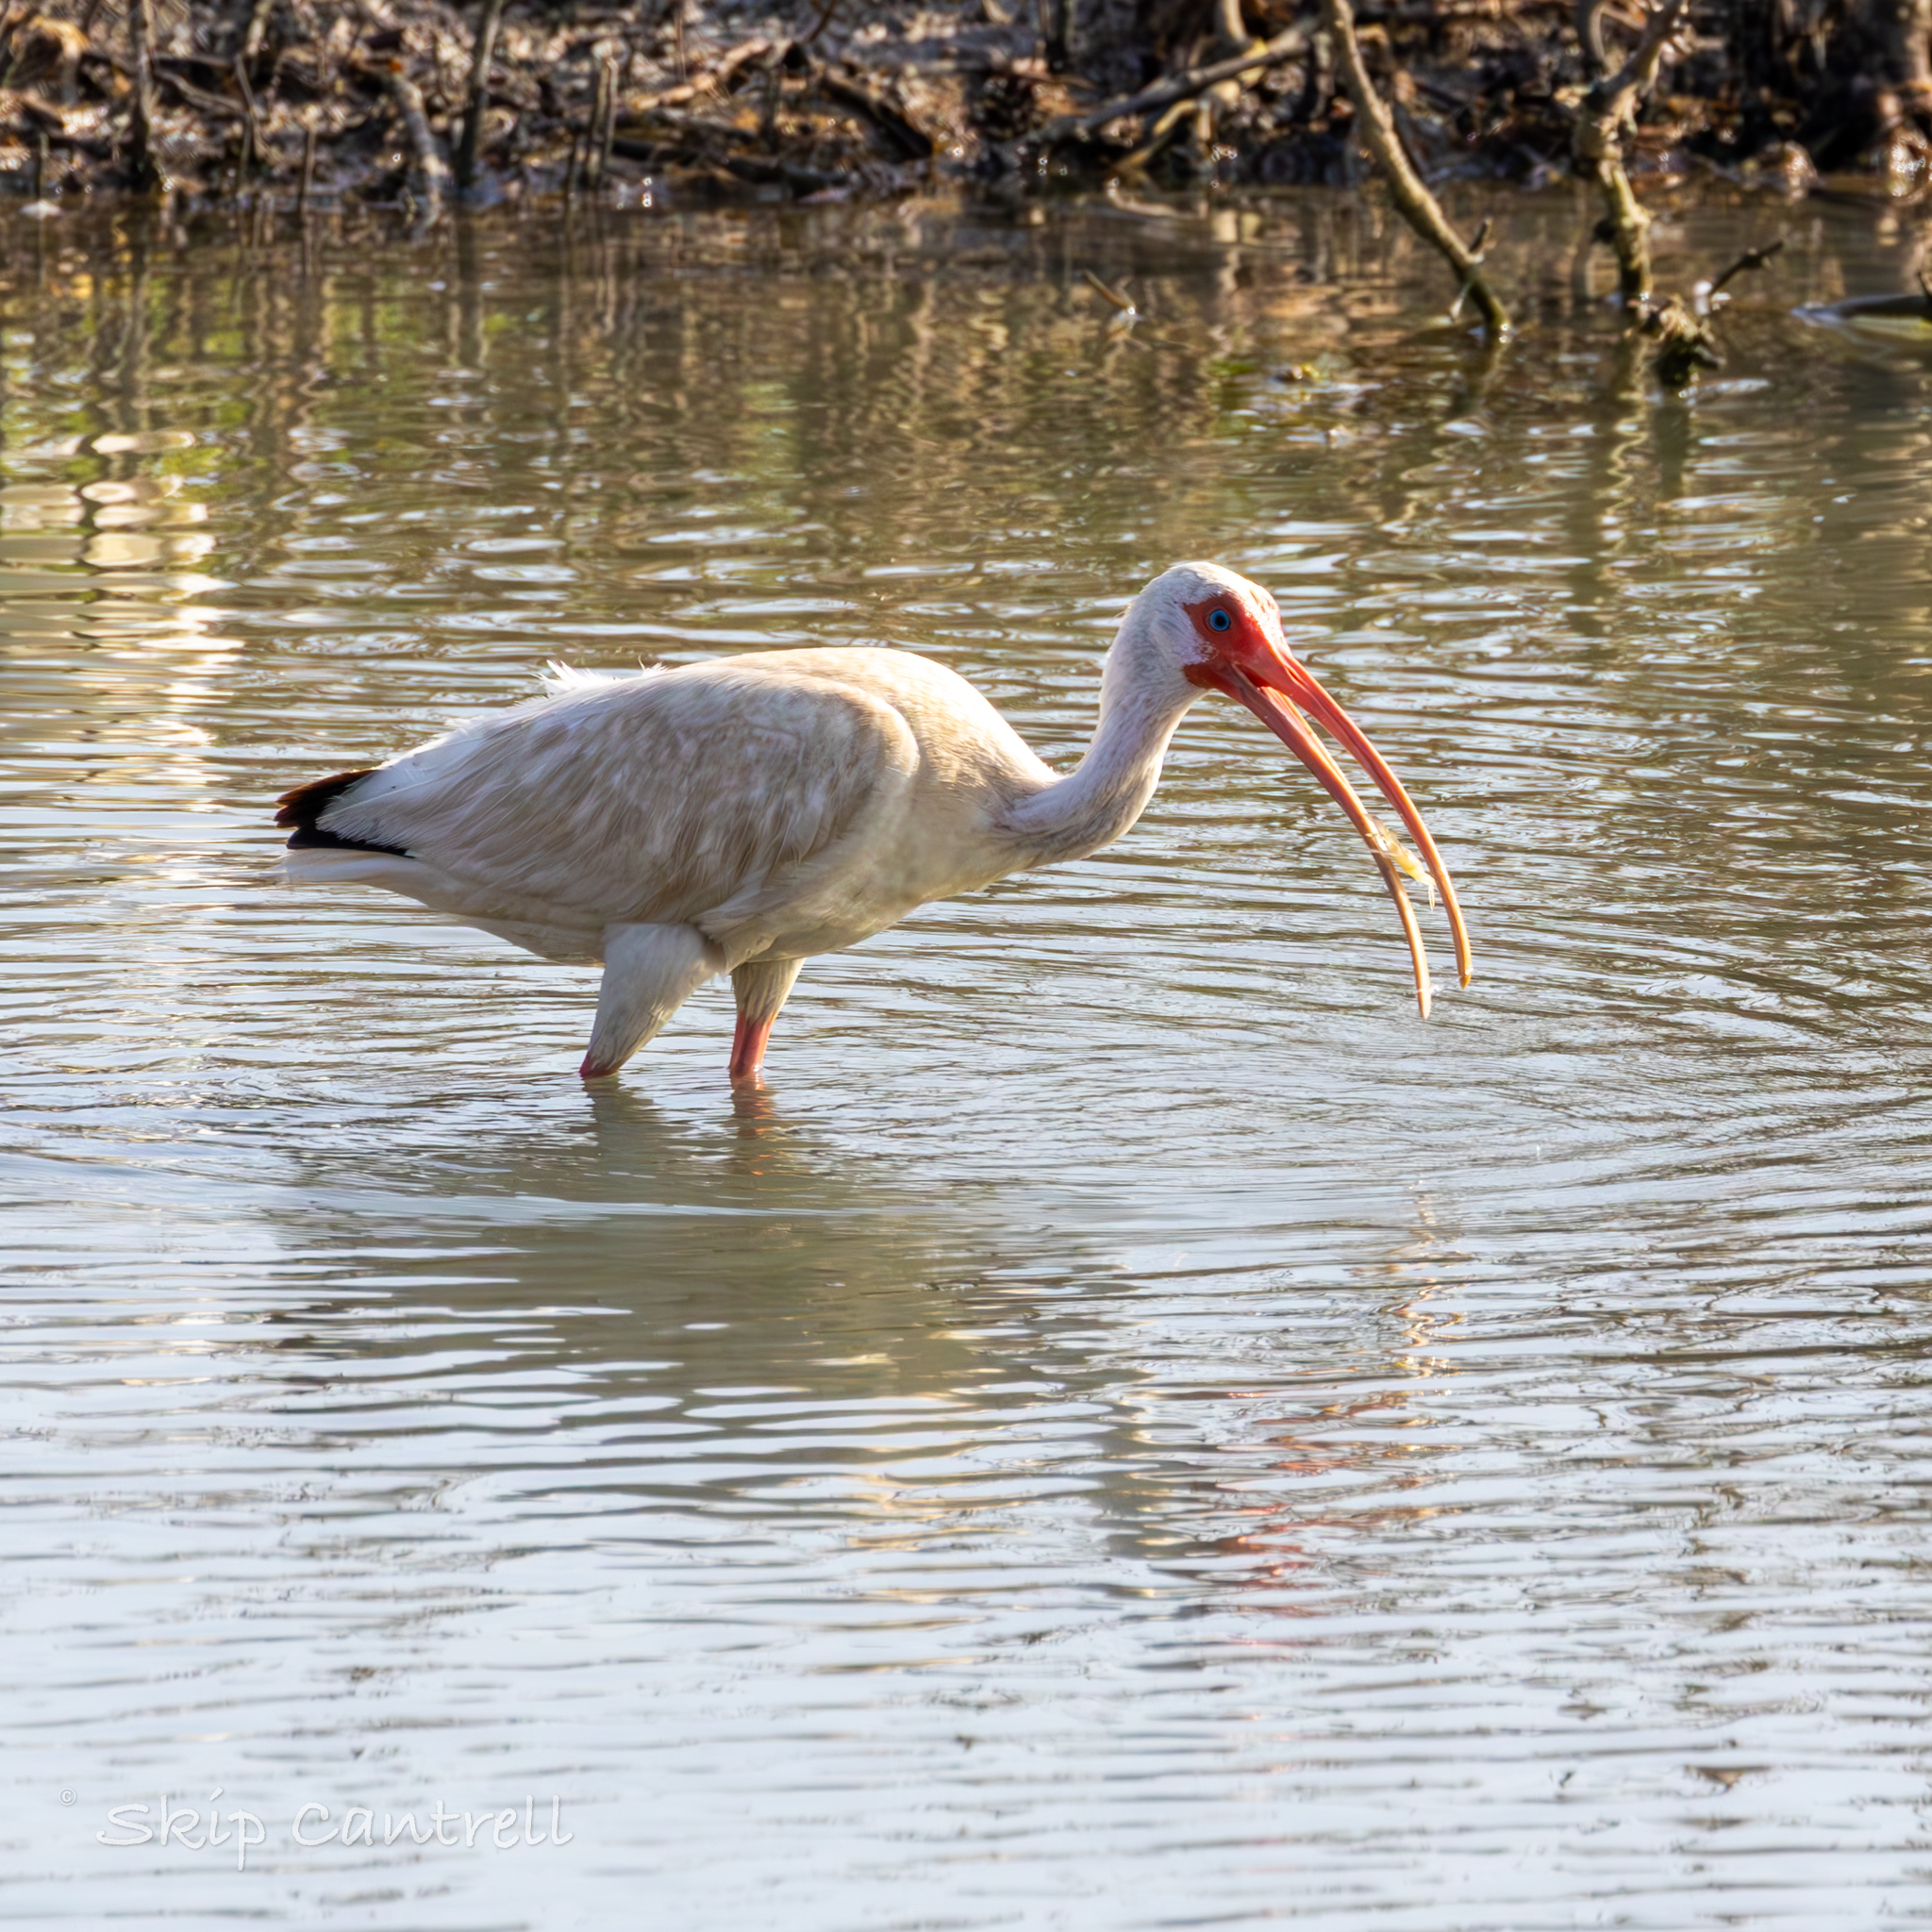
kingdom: Animalia
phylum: Chordata
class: Aves
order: Pelecaniformes
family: Threskiornithidae
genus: Eudocimus
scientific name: Eudocimus albus
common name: White ibis
